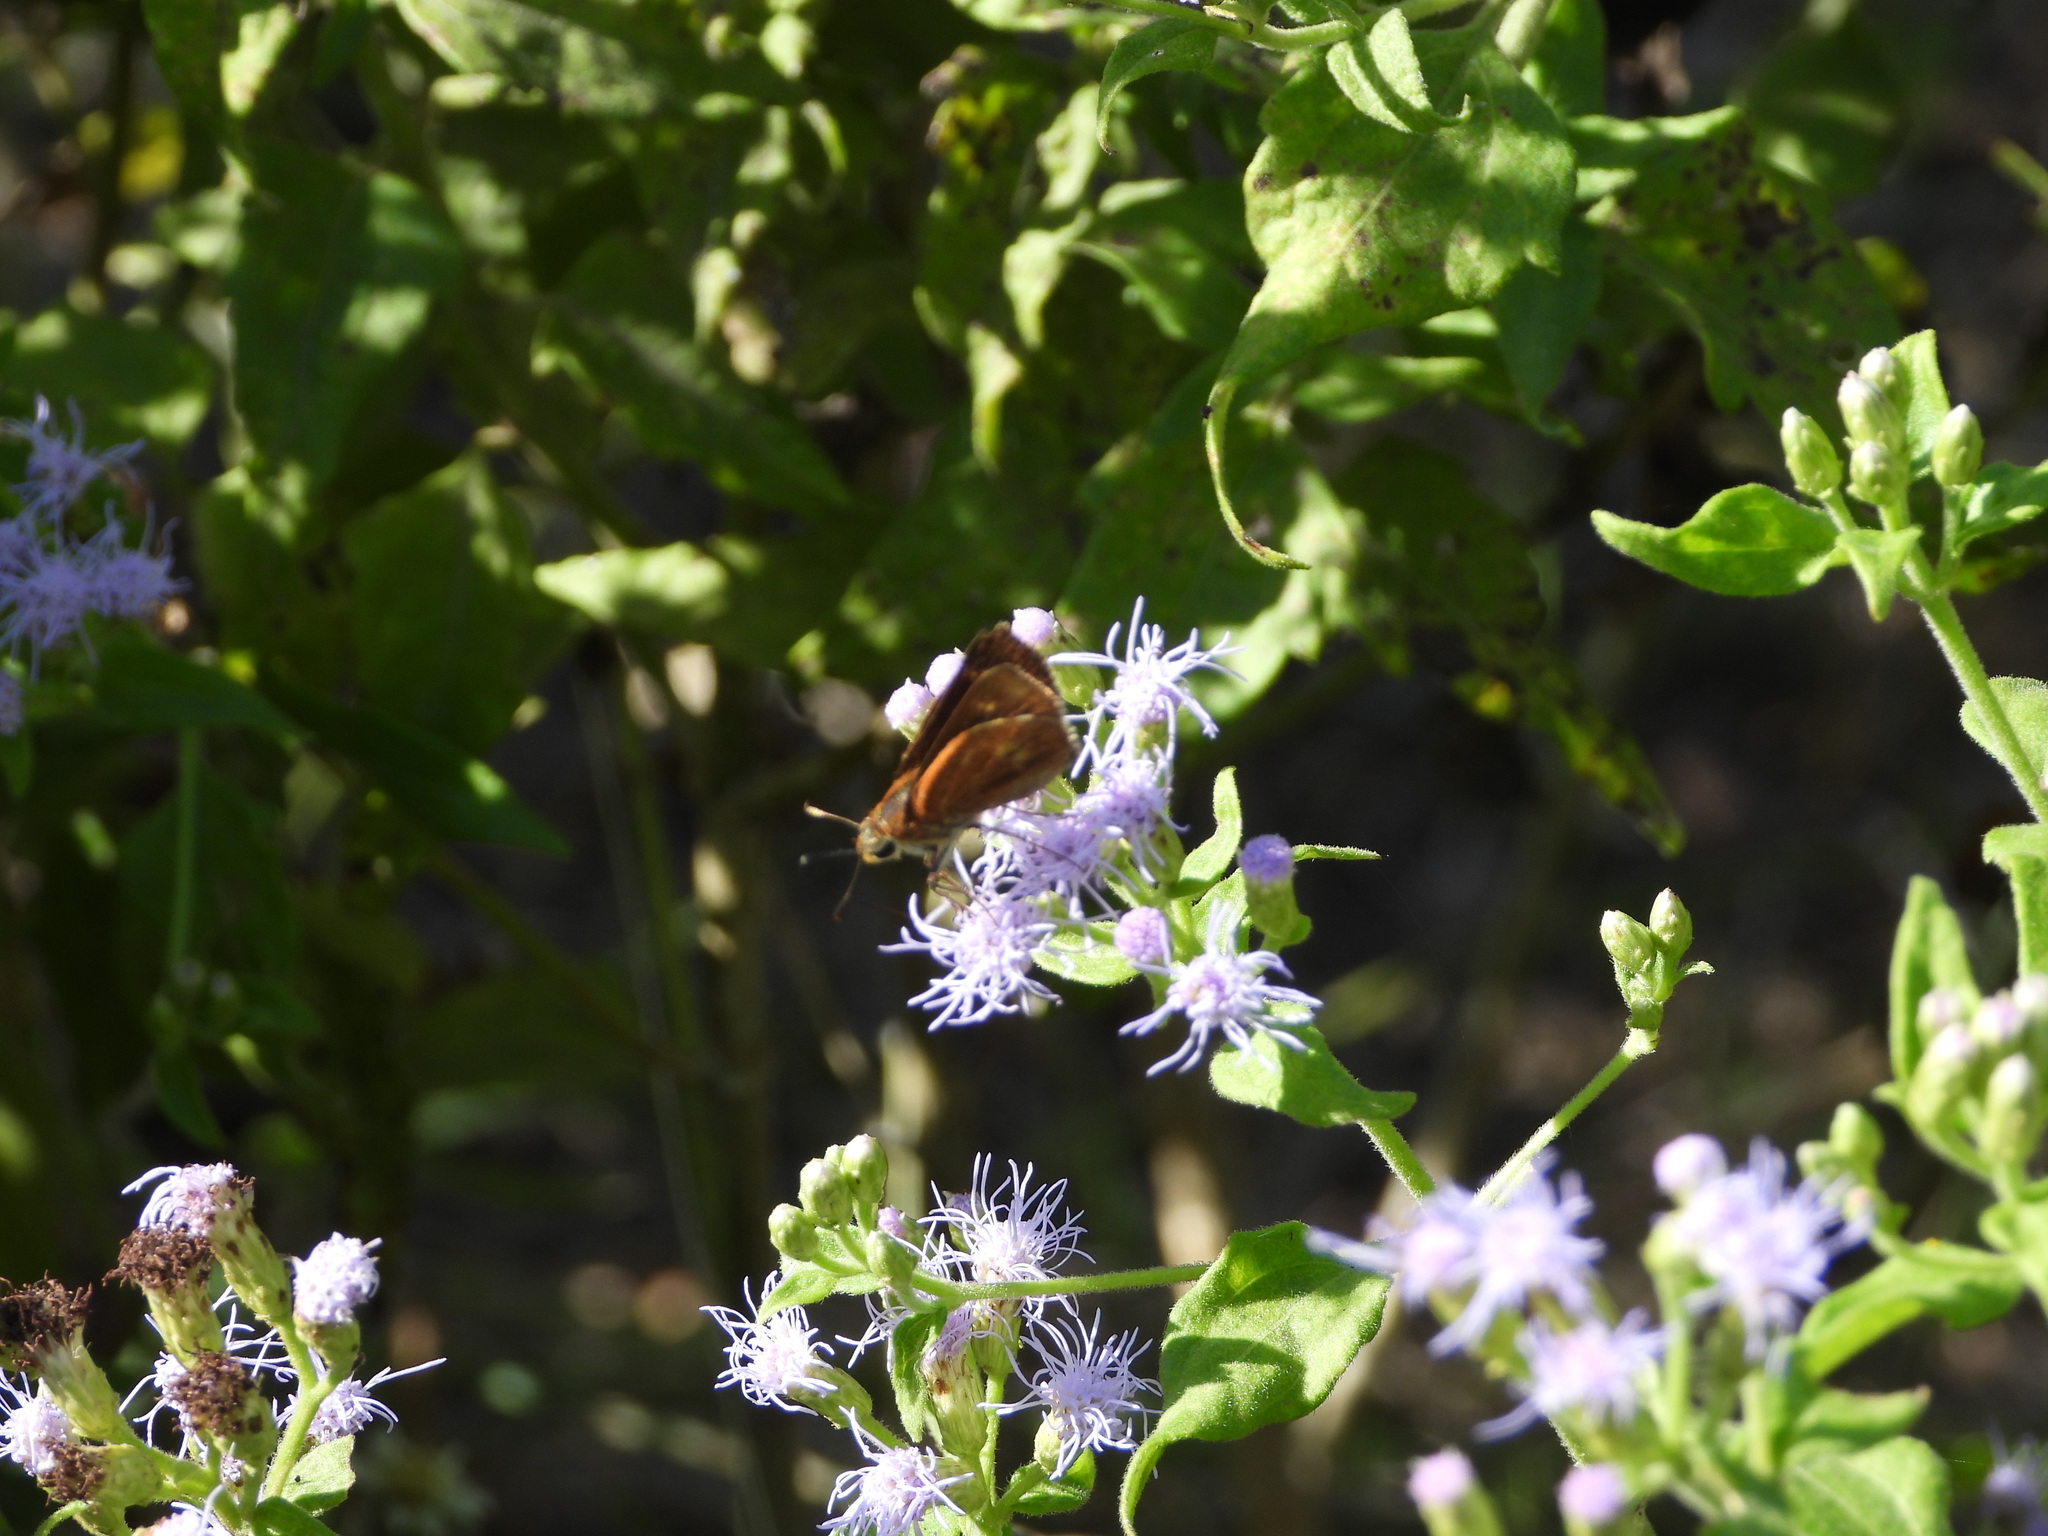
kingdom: Animalia
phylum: Arthropoda
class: Insecta
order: Lepidoptera
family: Hesperiidae
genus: Polites
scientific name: Polites otho
